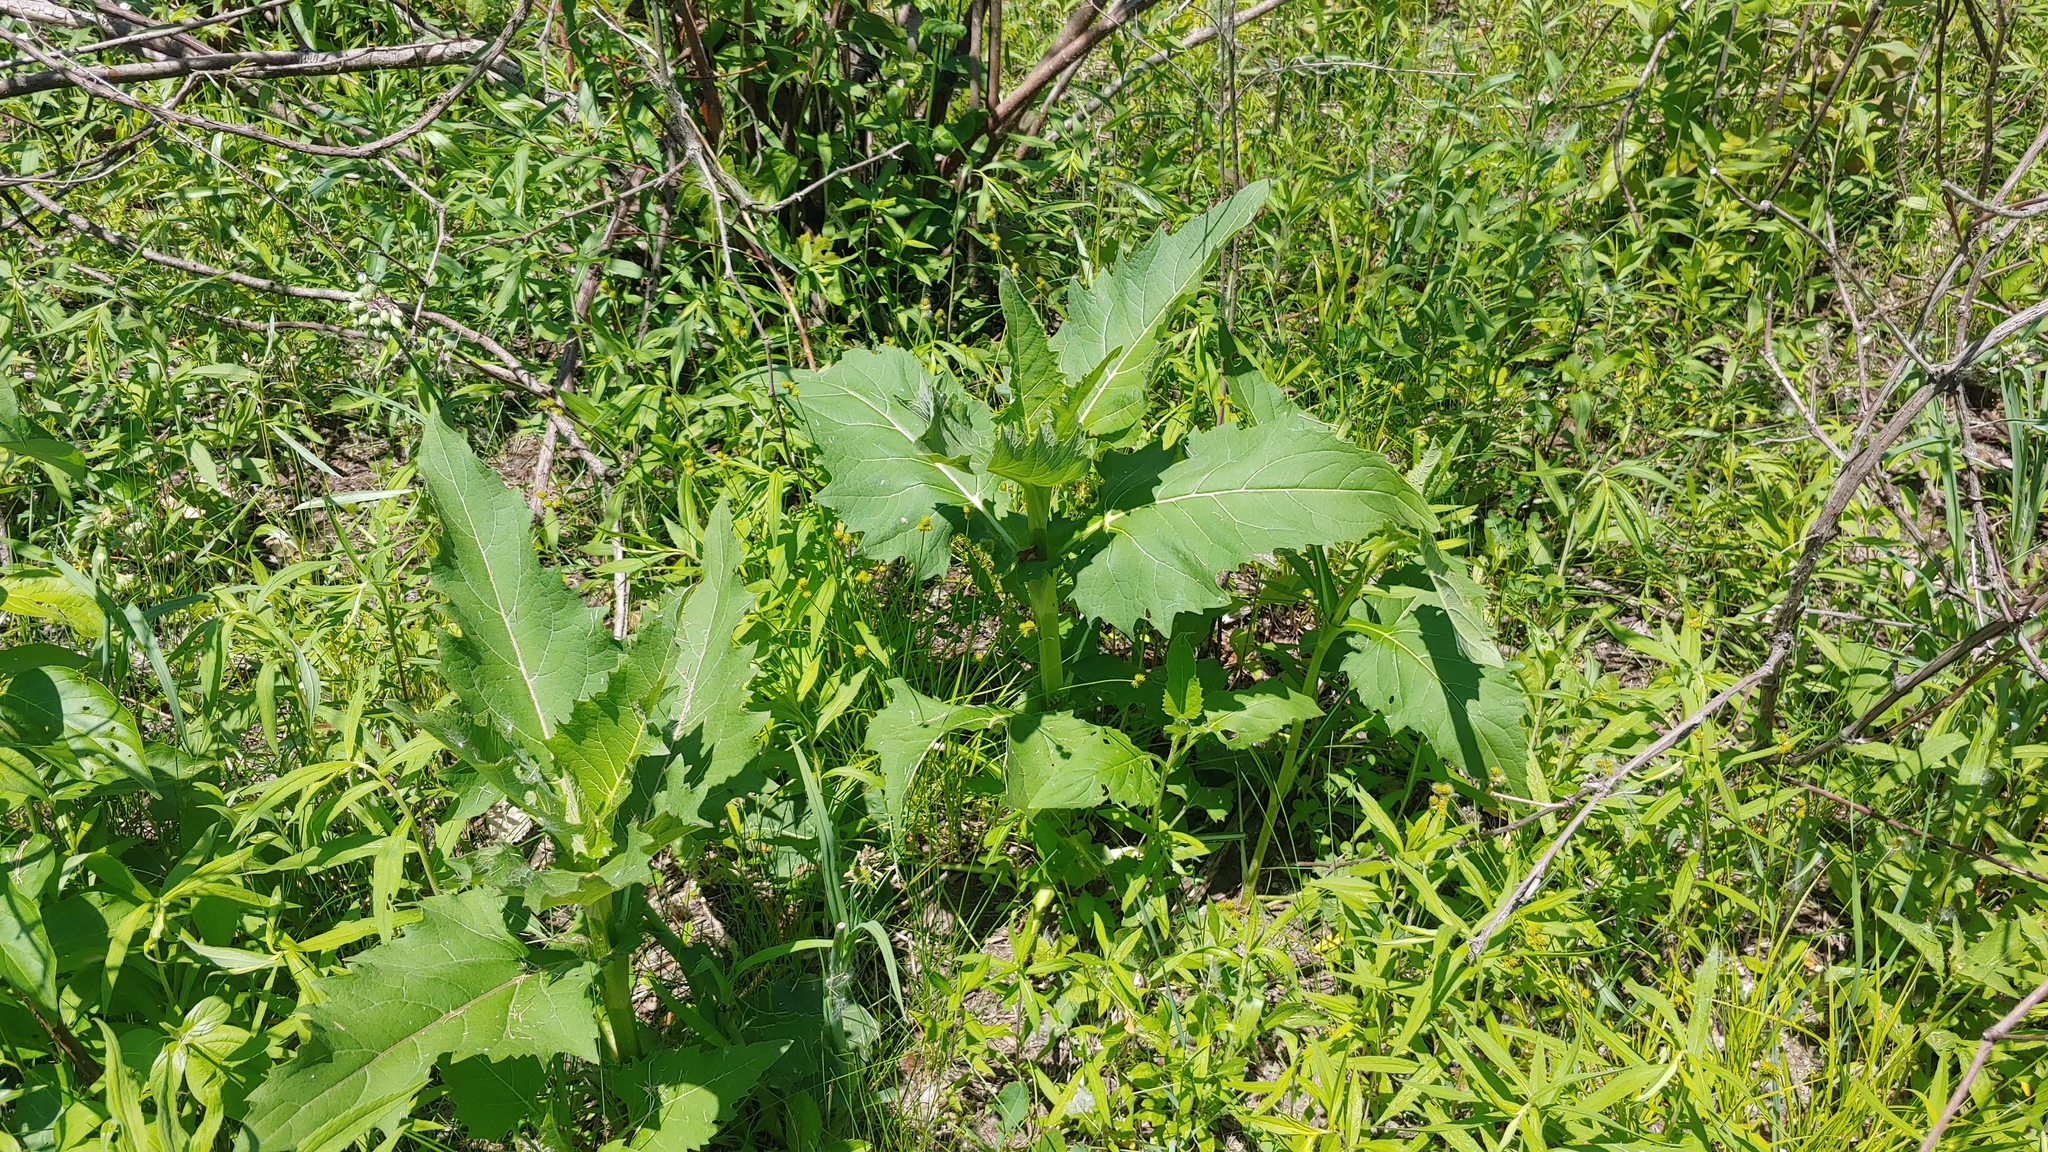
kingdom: Plantae
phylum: Tracheophyta
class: Magnoliopsida
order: Asterales
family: Asteraceae
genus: Silphium
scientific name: Silphium perfoliatum
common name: Cup-plant
